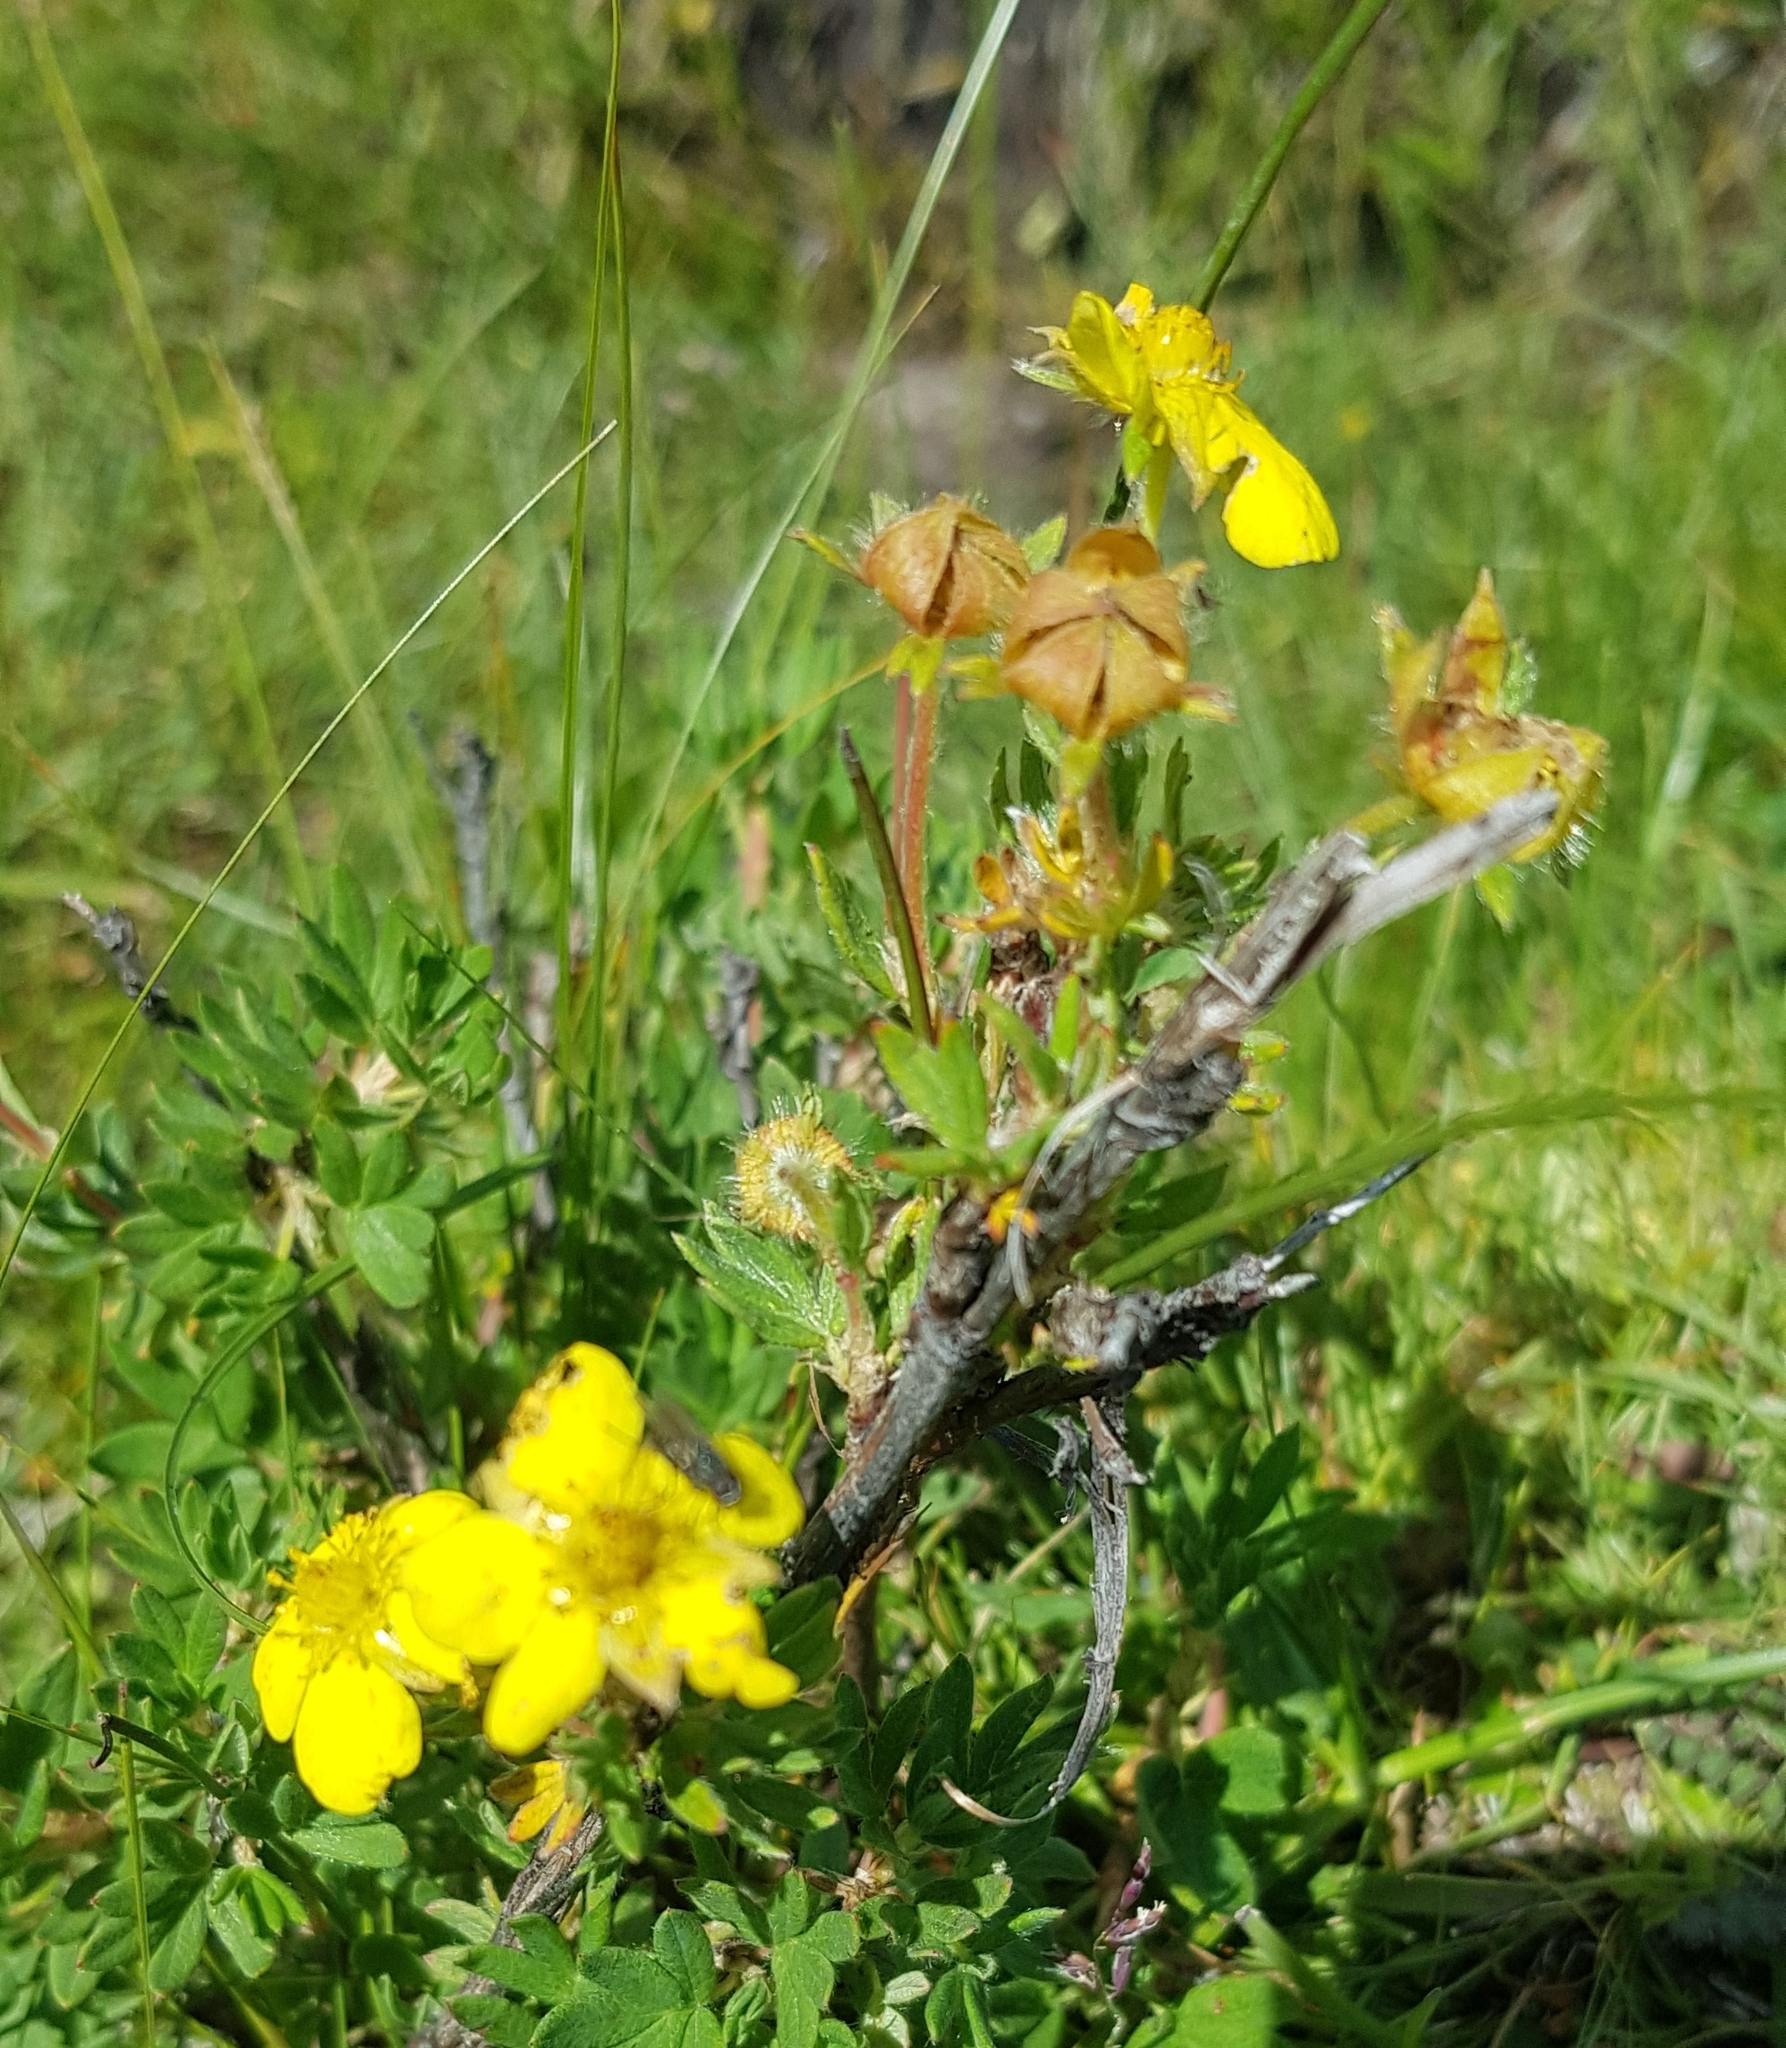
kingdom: Plantae
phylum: Tracheophyta
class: Magnoliopsida
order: Rosales
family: Rosaceae
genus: Dasiphora
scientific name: Dasiphora fruticosa
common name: Shrubby cinquefoil
